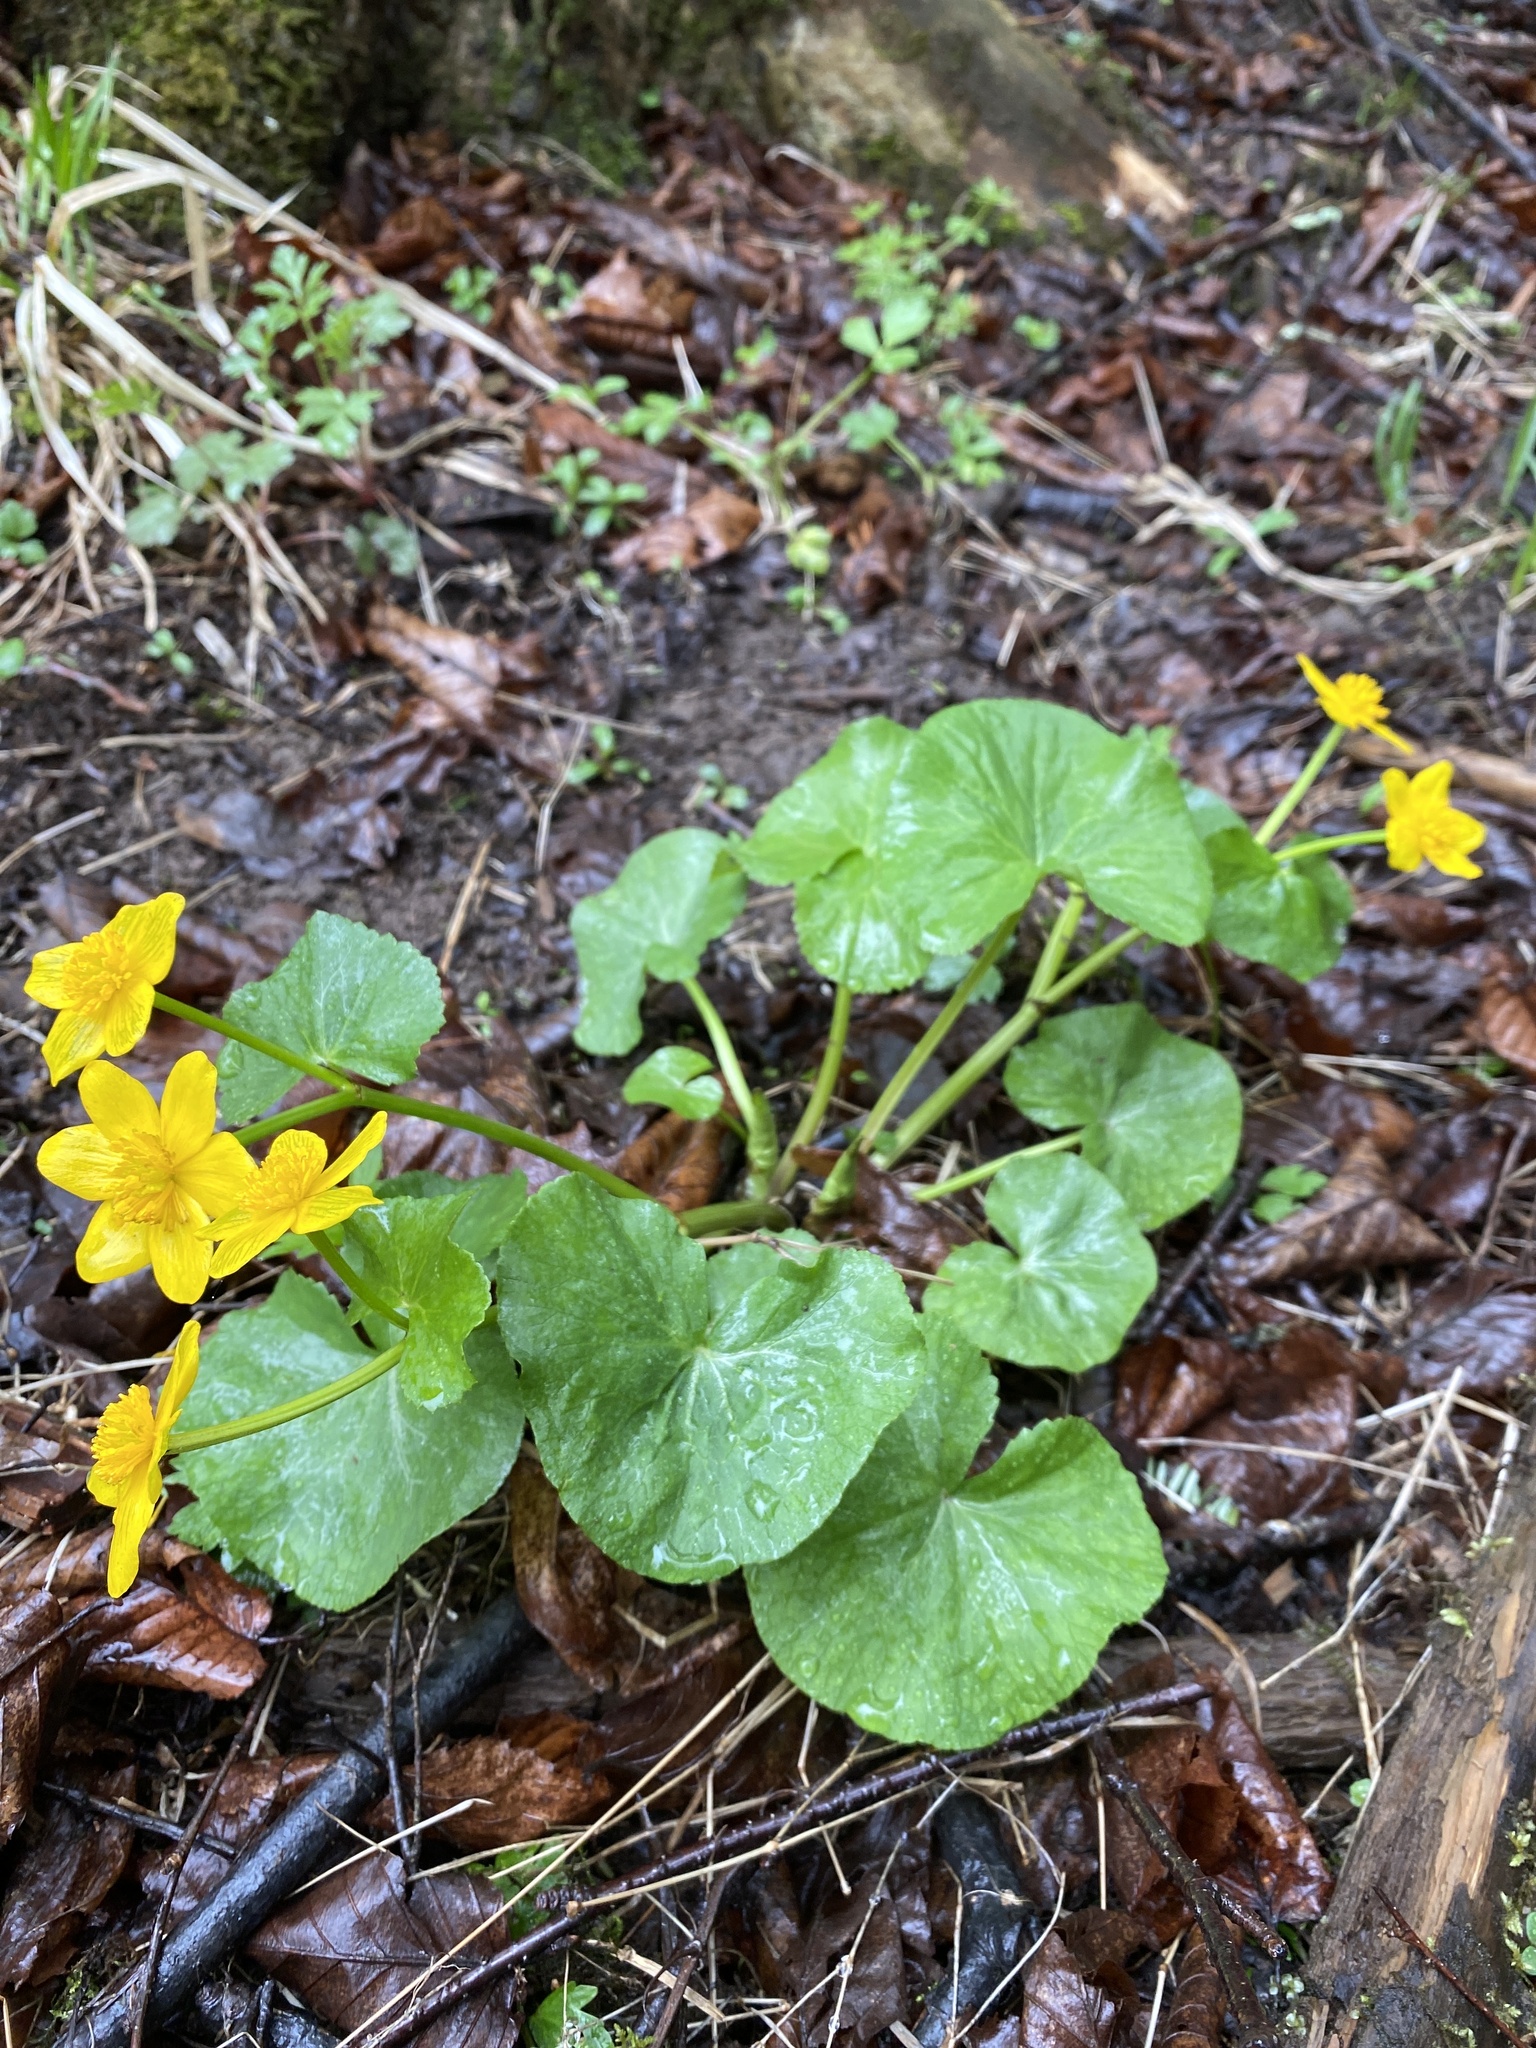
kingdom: Plantae
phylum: Tracheophyta
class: Magnoliopsida
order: Ranunculales
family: Ranunculaceae
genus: Caltha
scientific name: Caltha palustris
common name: Marsh marigold
